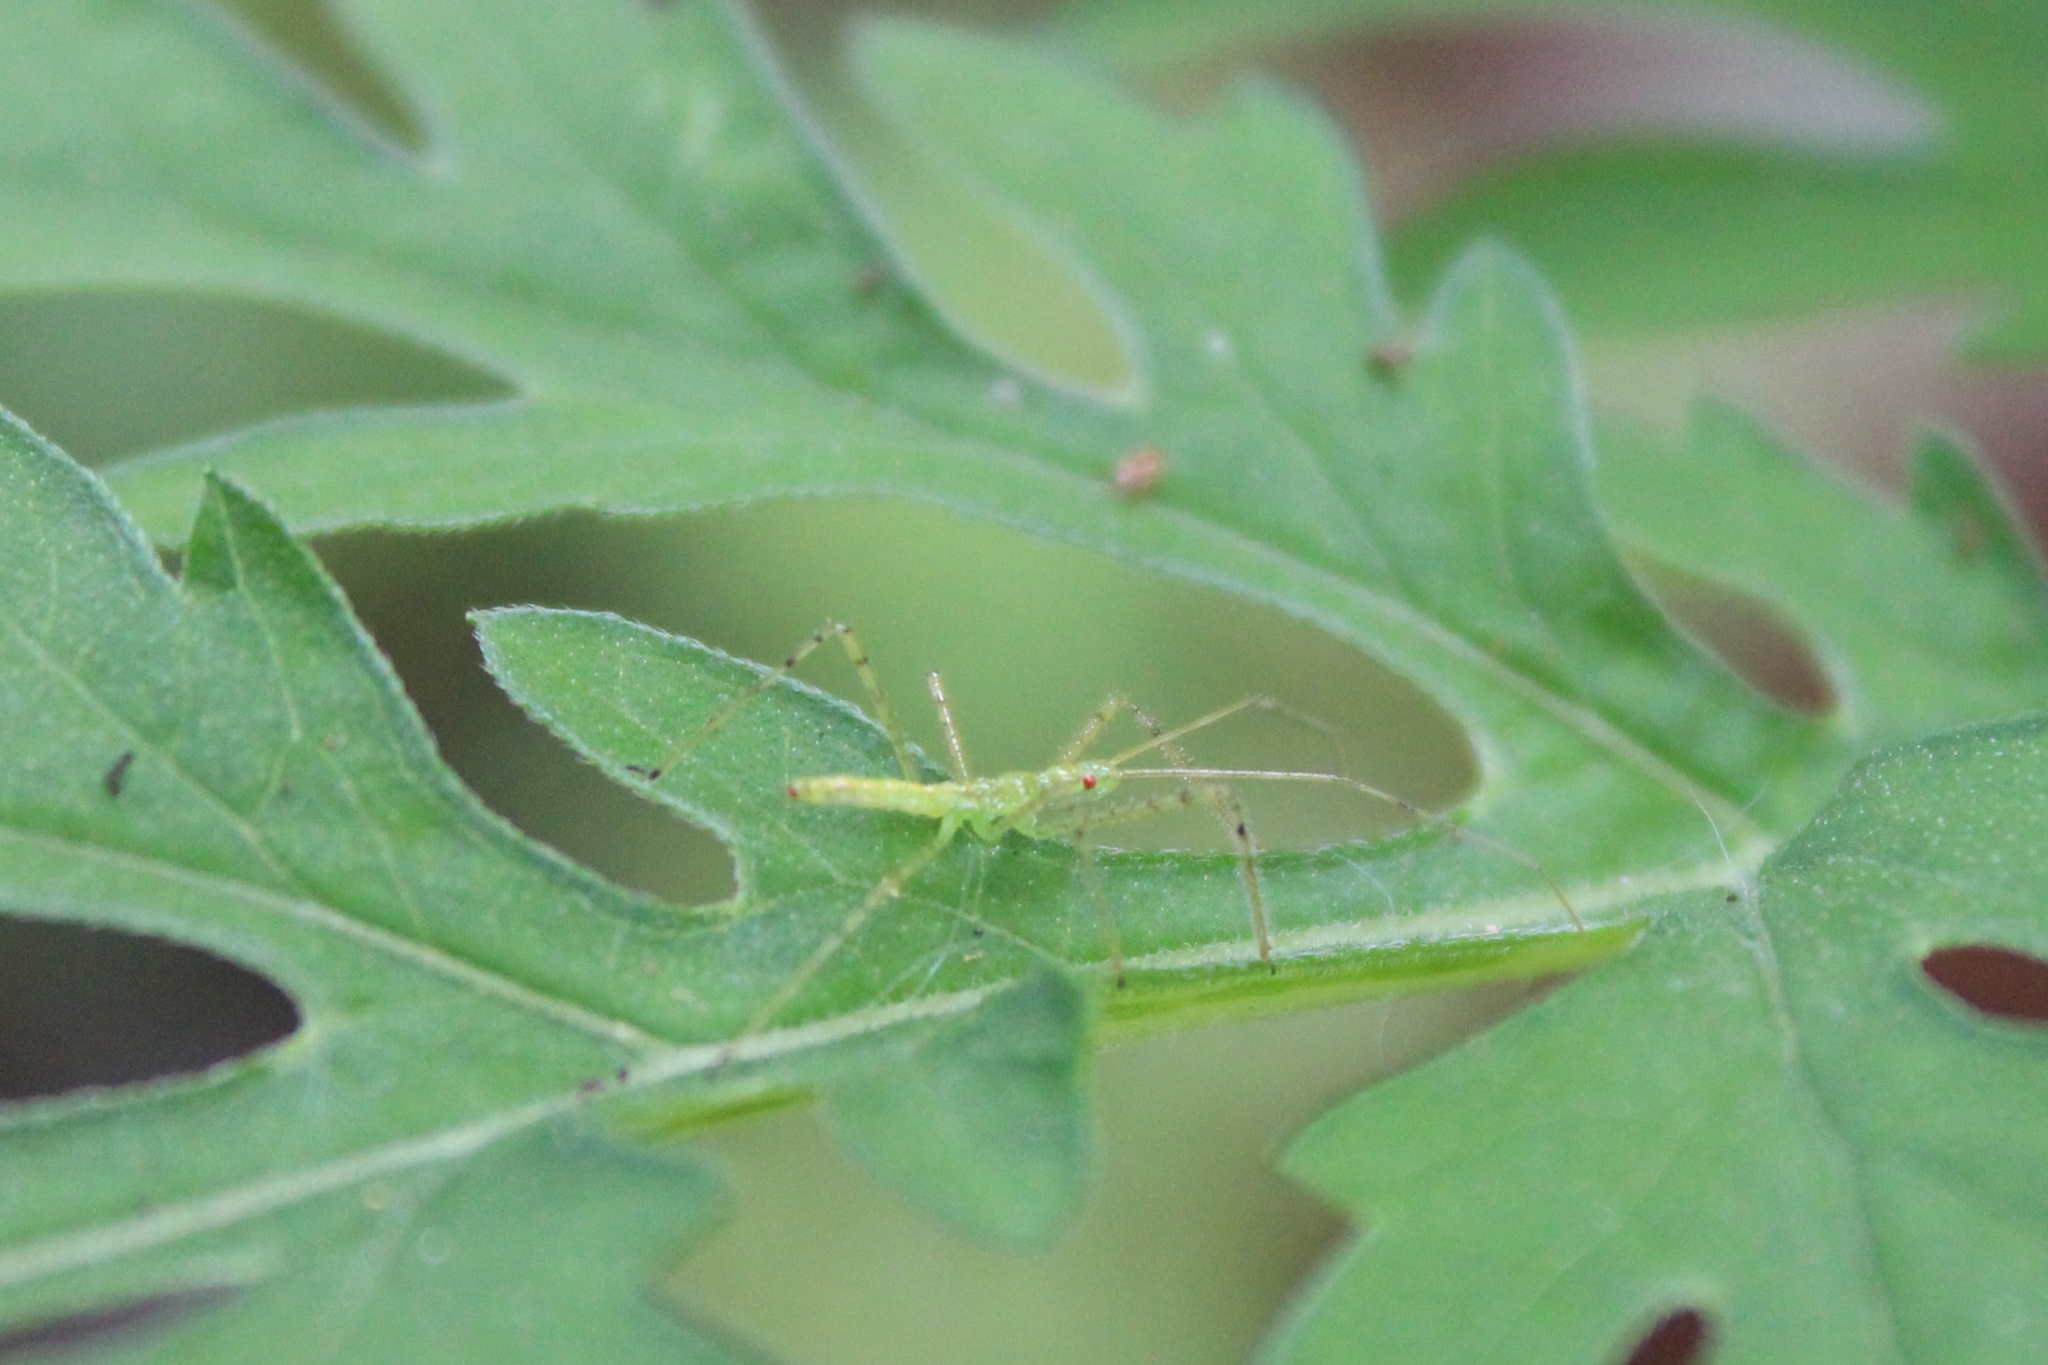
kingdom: Animalia
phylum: Arthropoda
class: Insecta
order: Hemiptera
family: Reduviidae
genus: Zelus
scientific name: Zelus luridus
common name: Pale green assassin bug
